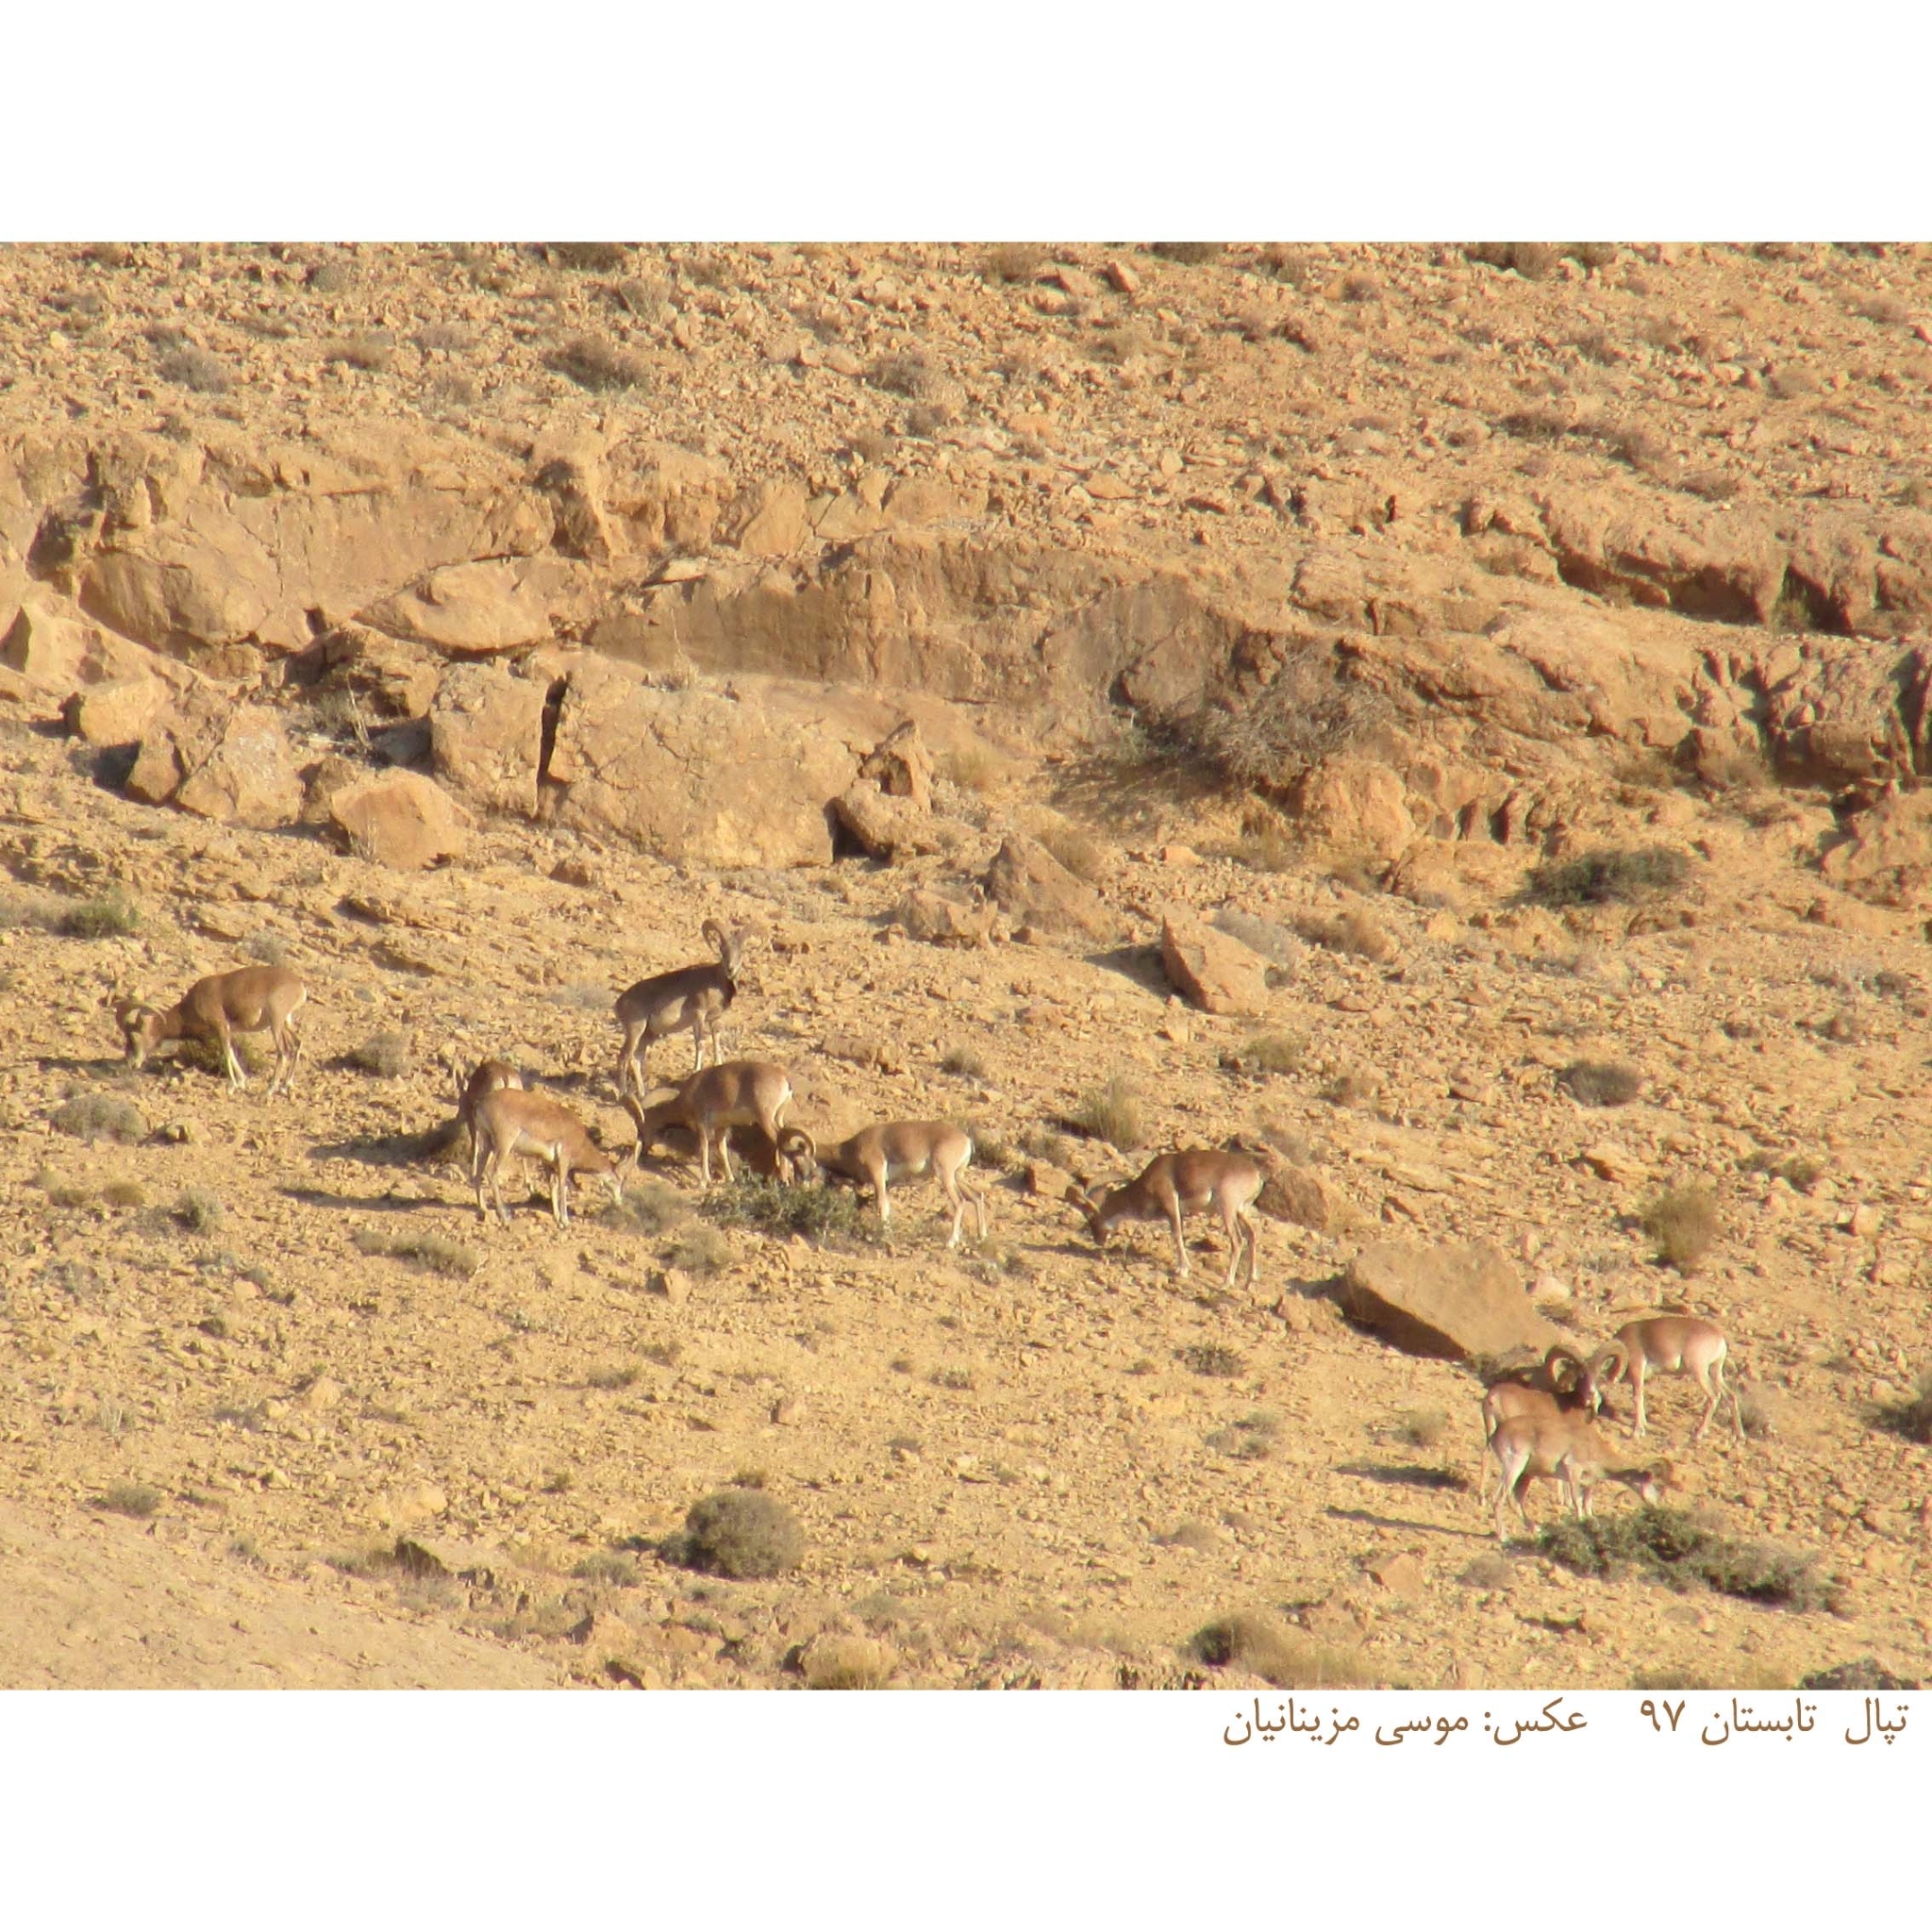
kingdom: Animalia
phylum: Chordata
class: Mammalia
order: Artiodactyla
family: Bovidae
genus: Ovis
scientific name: Ovis aries
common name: Domestic sheep
